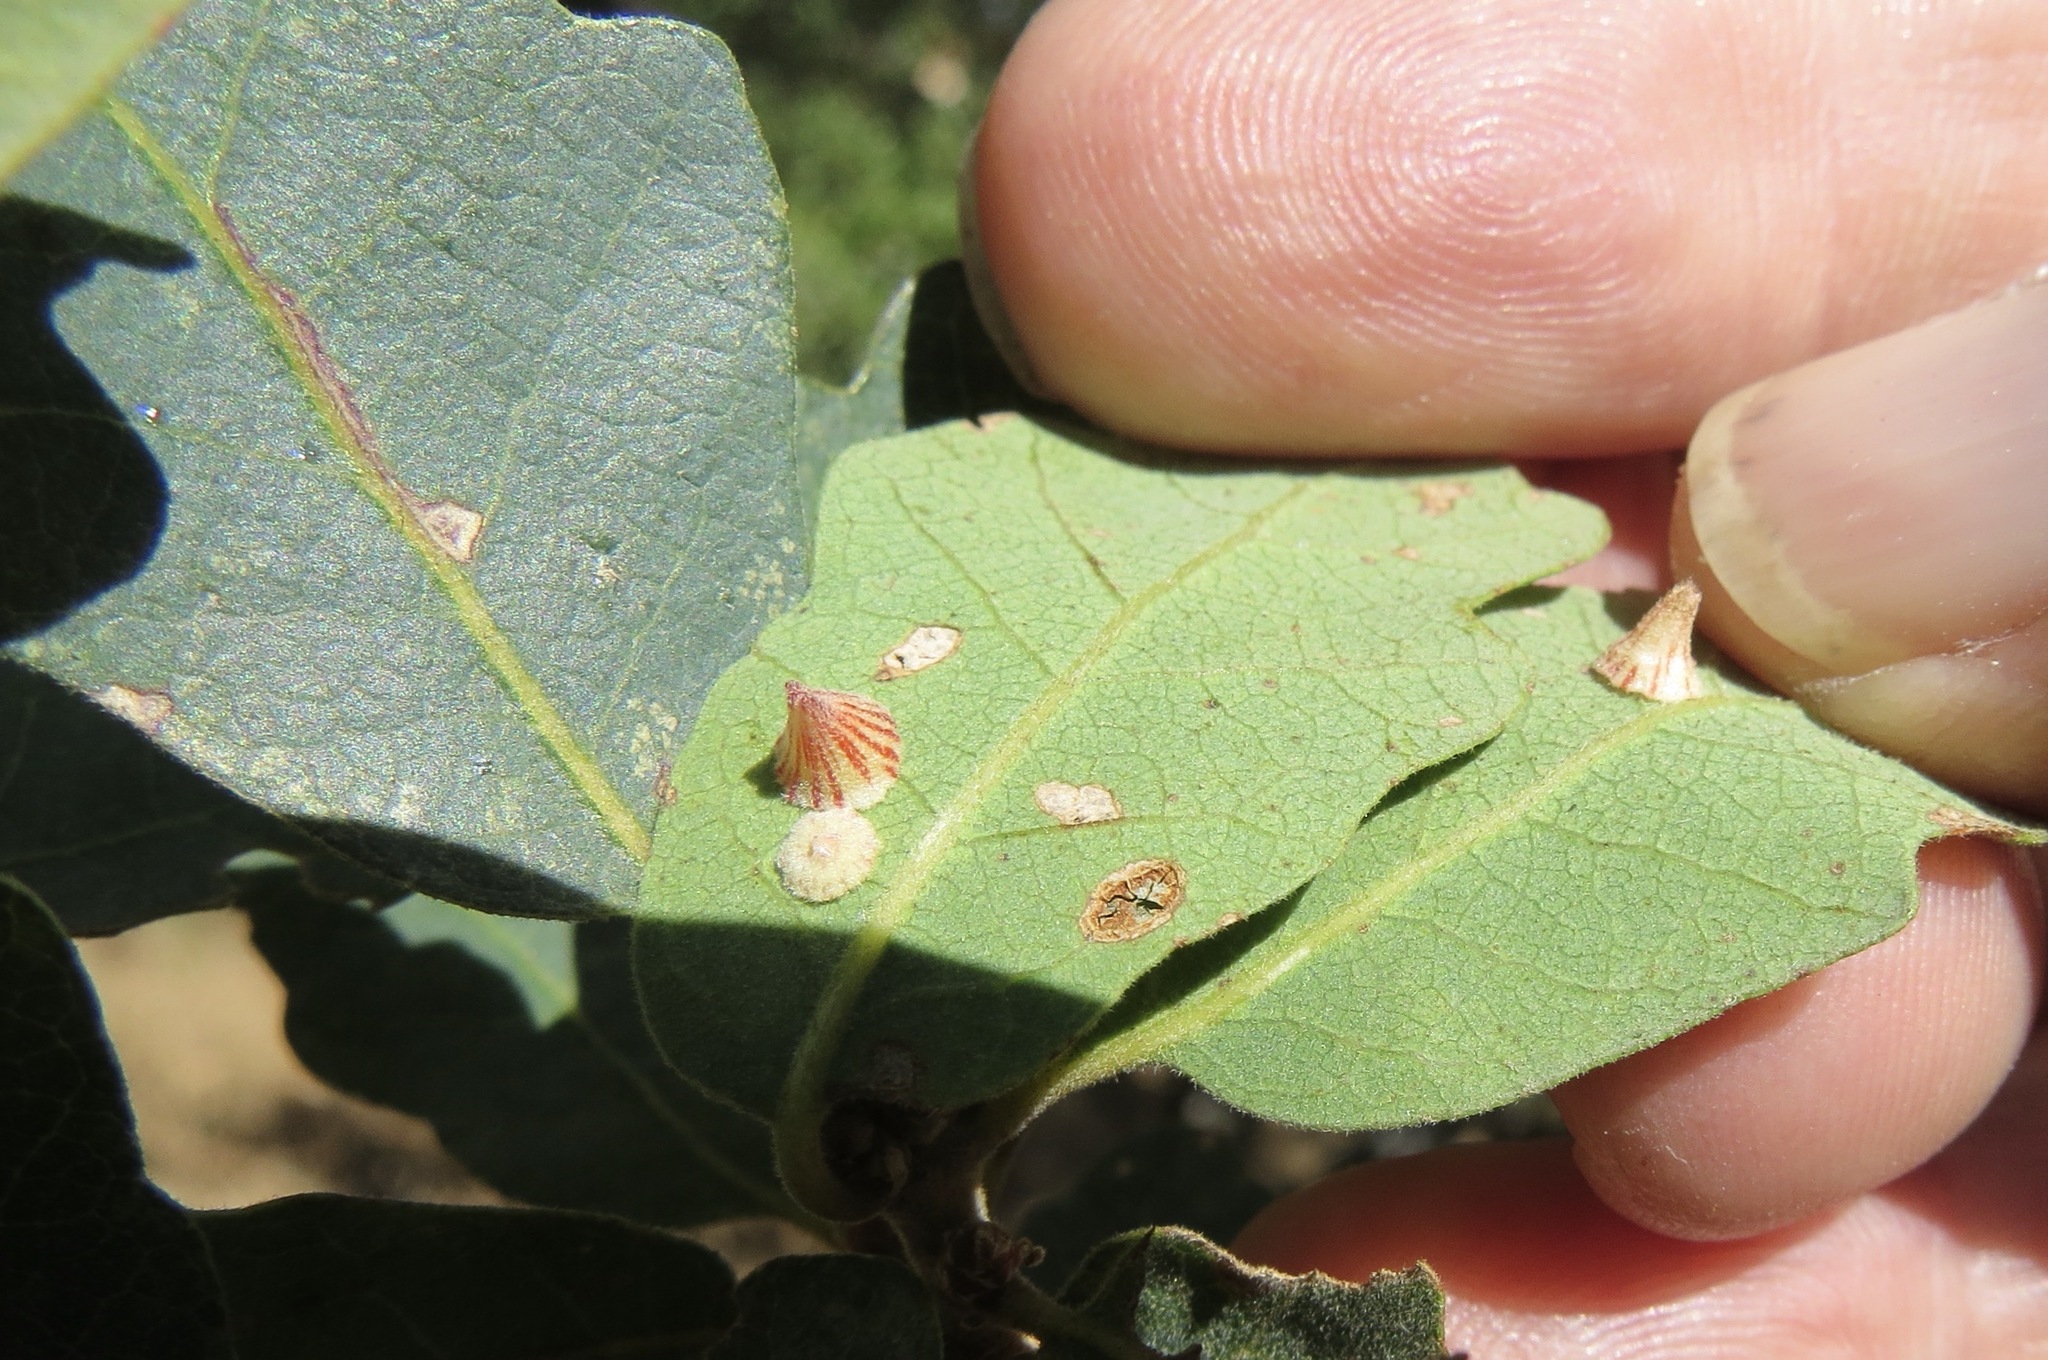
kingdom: Animalia
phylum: Arthropoda
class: Insecta
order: Hymenoptera
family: Cynipidae
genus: Andricus
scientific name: Andricus
